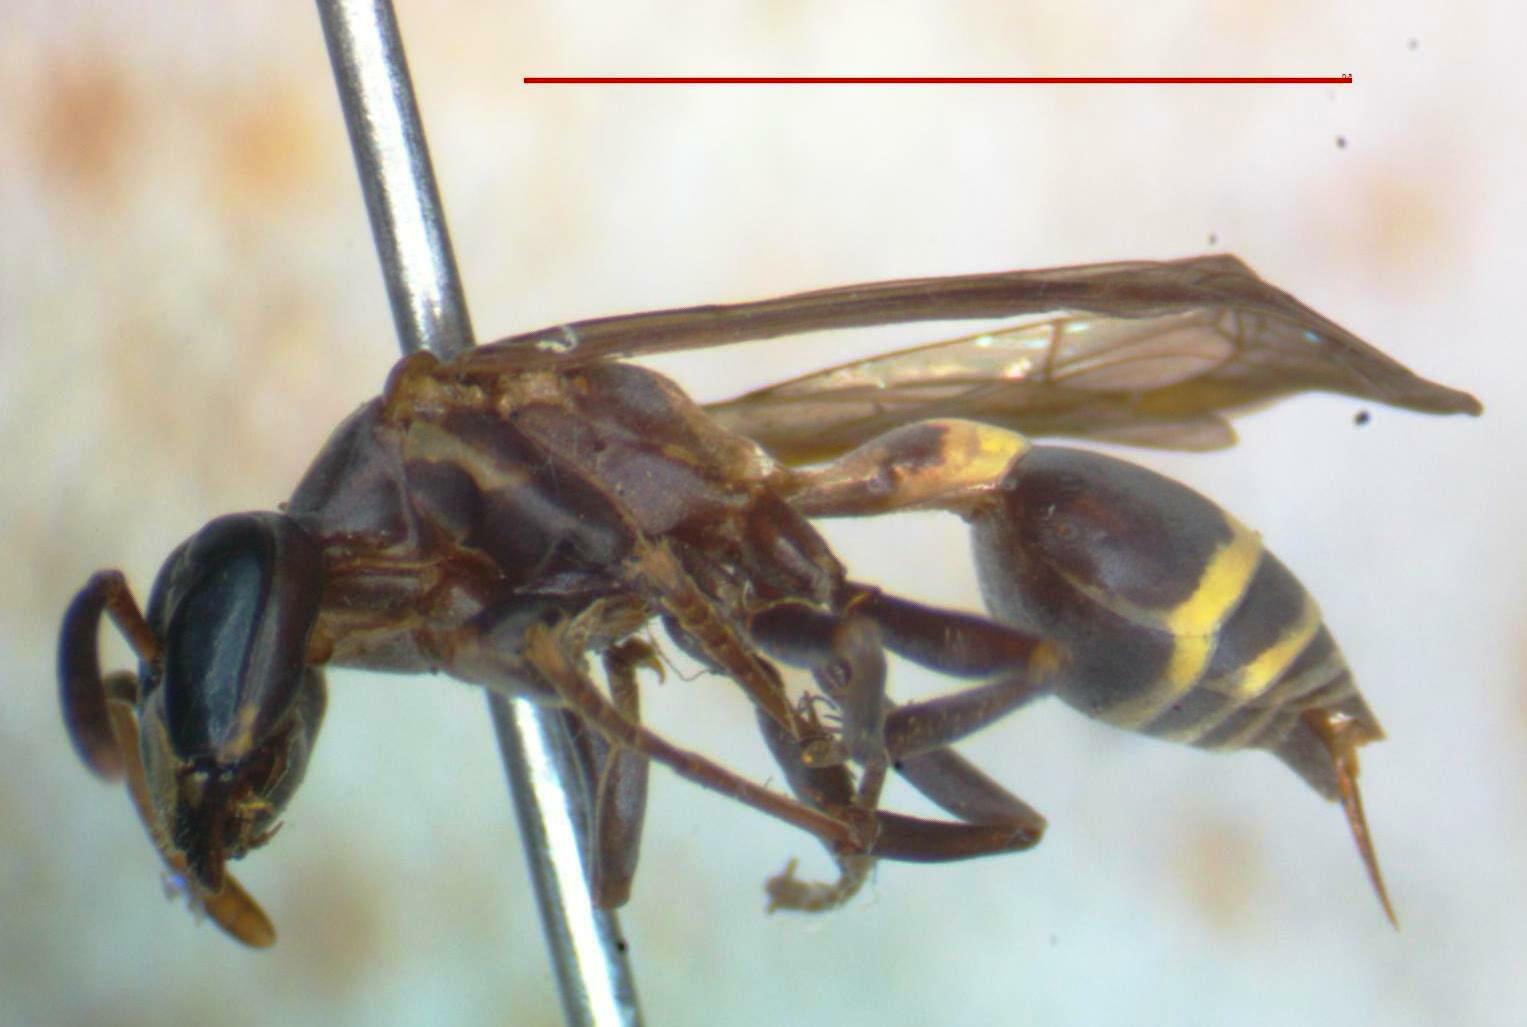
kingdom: Animalia
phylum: Arthropoda
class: Insecta
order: Hymenoptera
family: Vespidae
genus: Myrapetra
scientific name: Myrapetra
